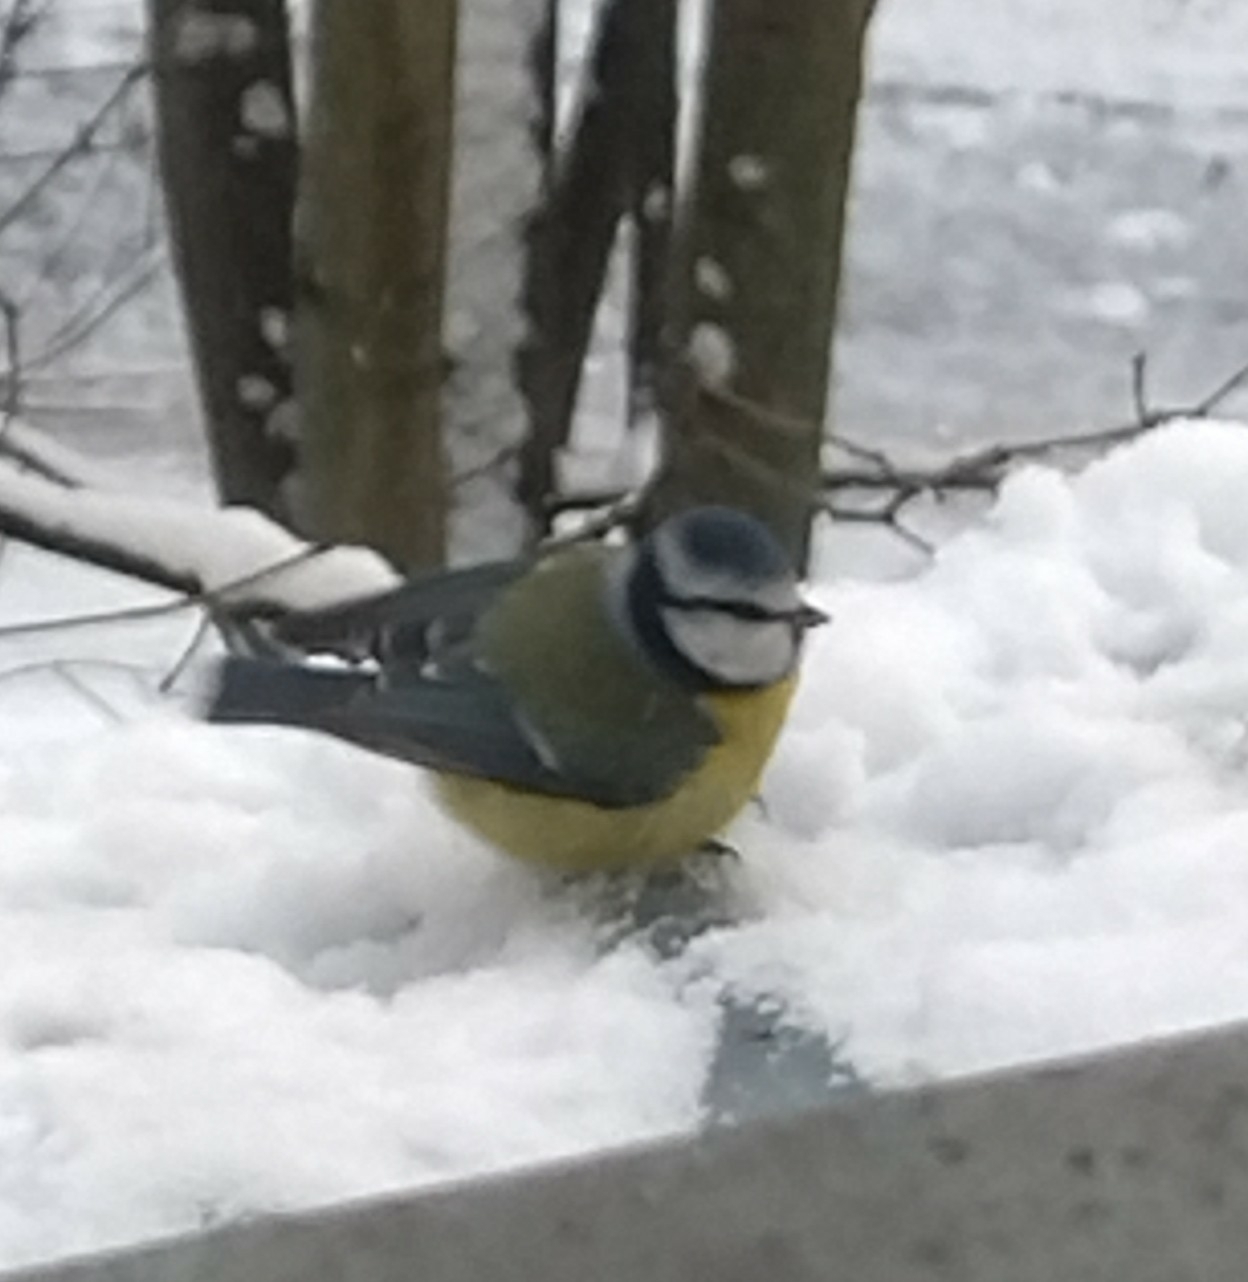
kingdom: Animalia
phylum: Chordata
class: Aves
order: Passeriformes
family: Paridae
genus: Cyanistes
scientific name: Cyanistes caeruleus
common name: Eurasian blue tit
